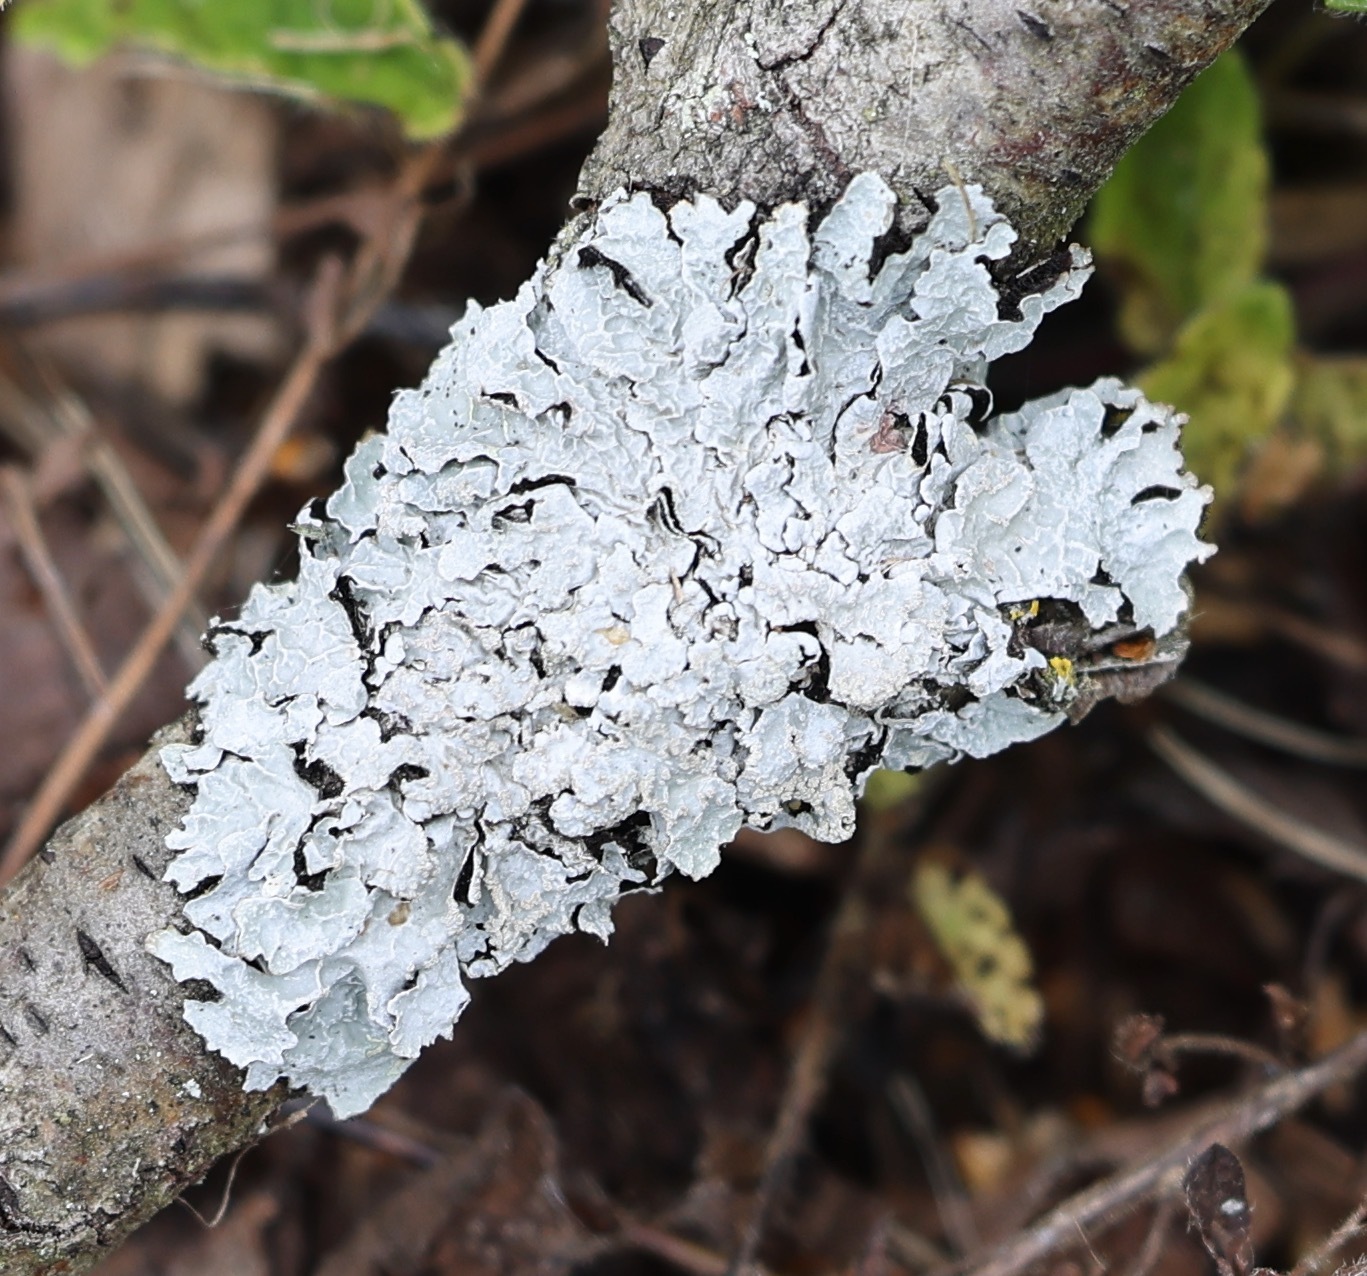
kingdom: Fungi
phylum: Ascomycota
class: Lecanoromycetes
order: Lecanorales
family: Parmeliaceae
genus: Parmelia
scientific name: Parmelia sulcata
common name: Netted shield lichen
